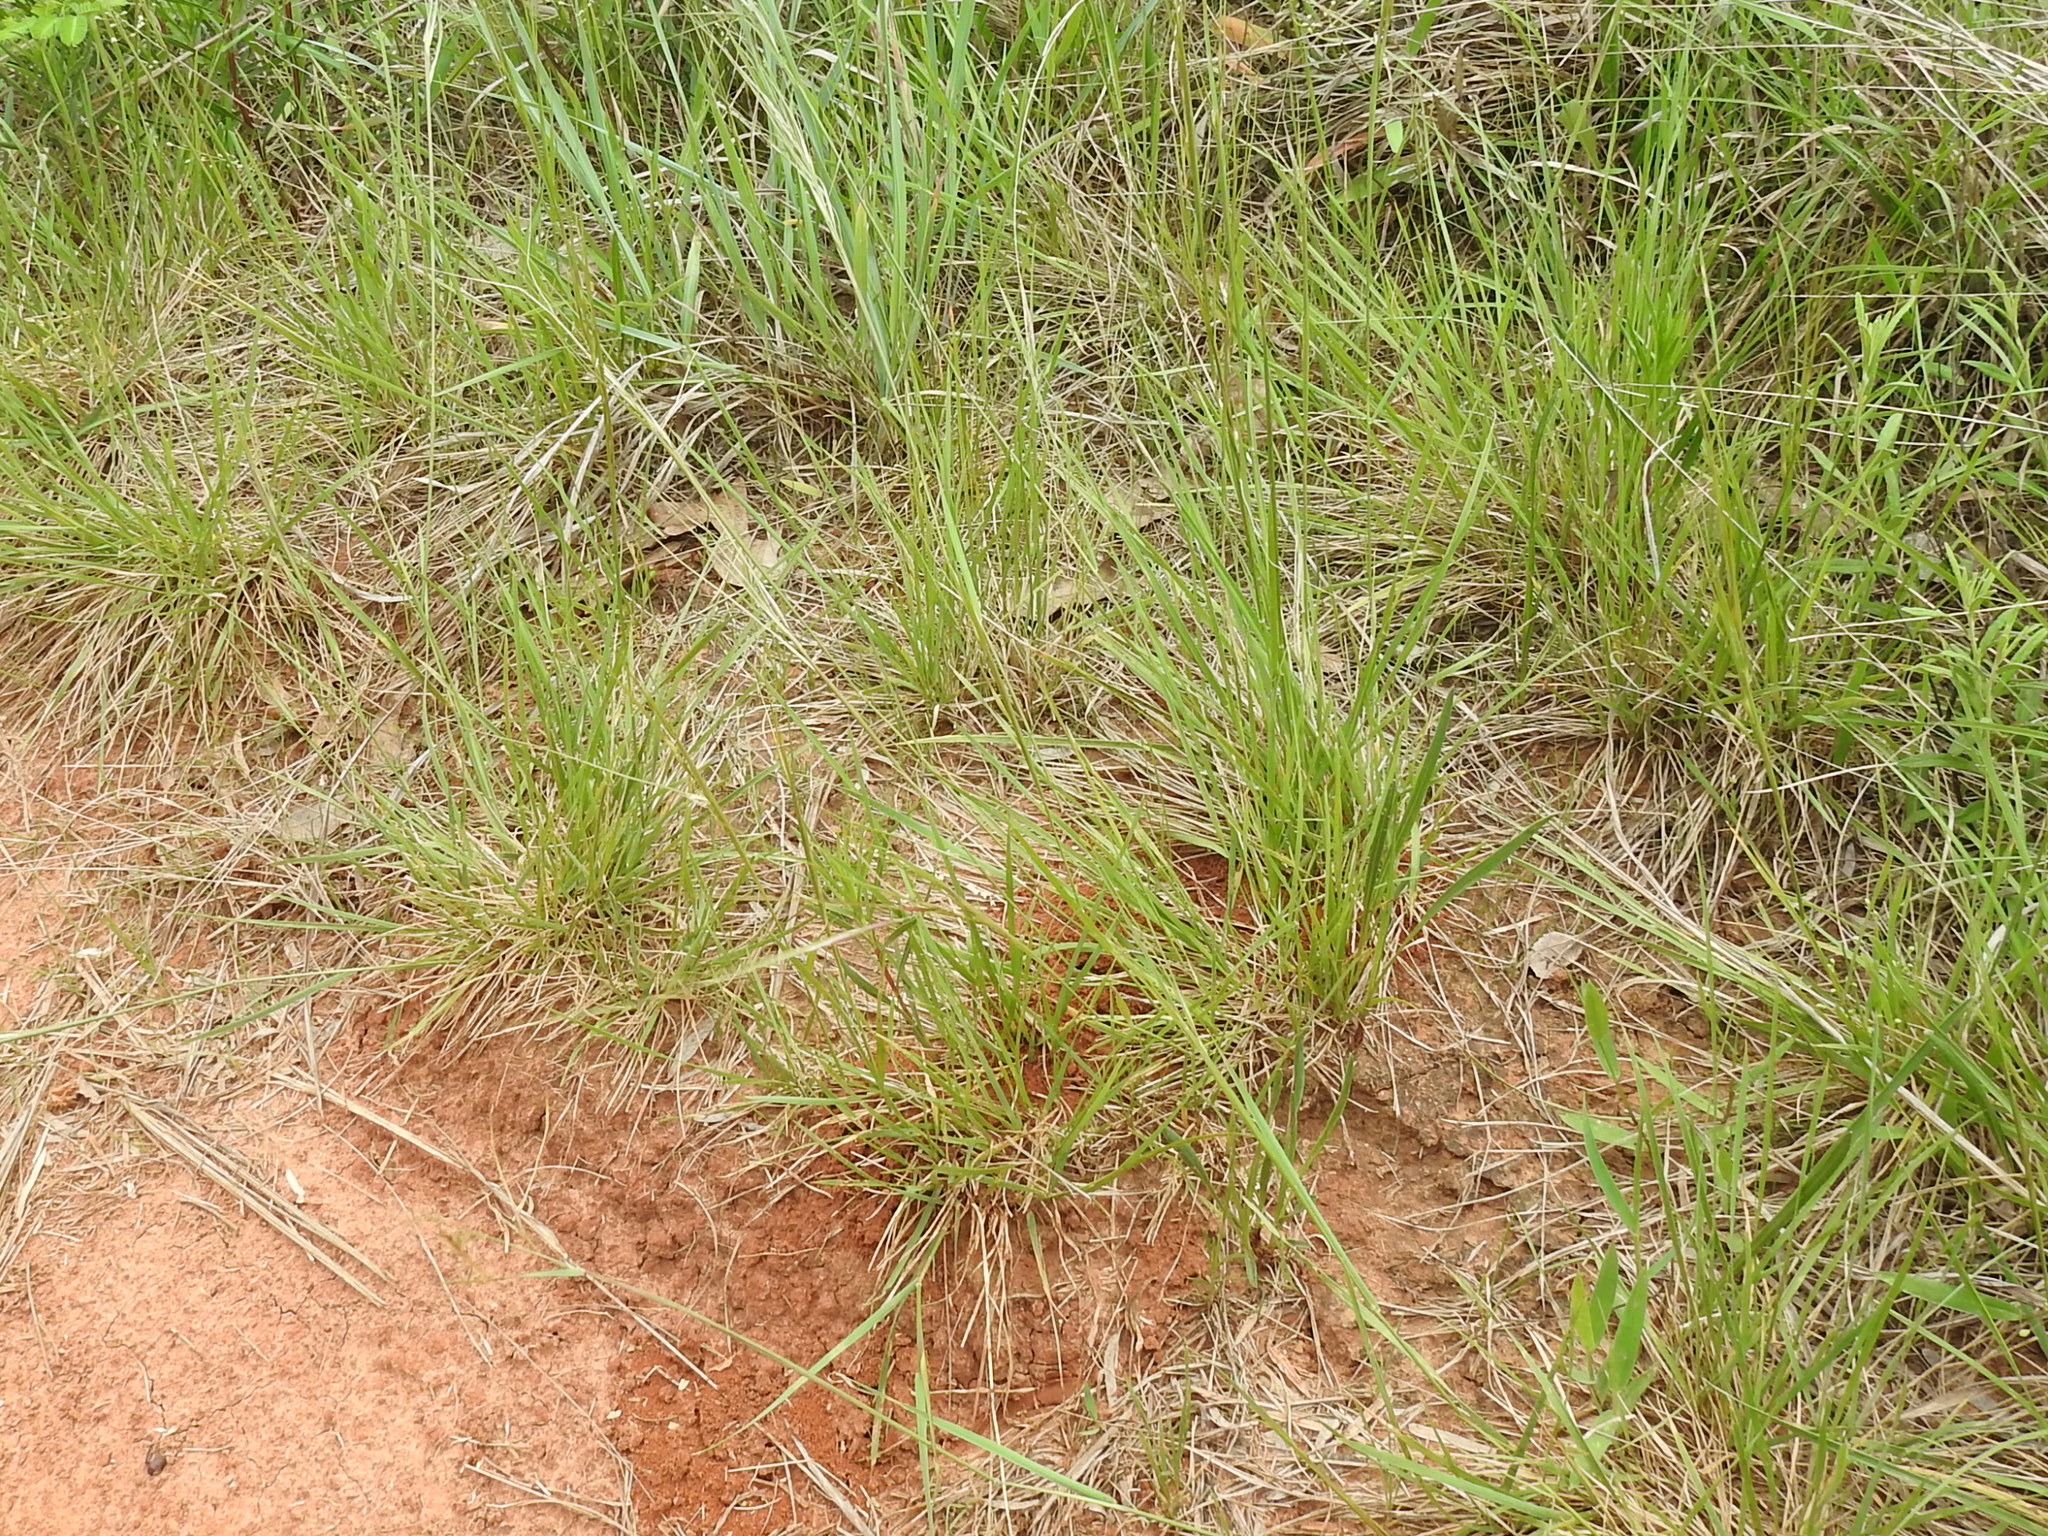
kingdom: Plantae
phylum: Tracheophyta
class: Liliopsida
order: Poales
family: Poaceae
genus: Nassella
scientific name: Nassella leucotricha
